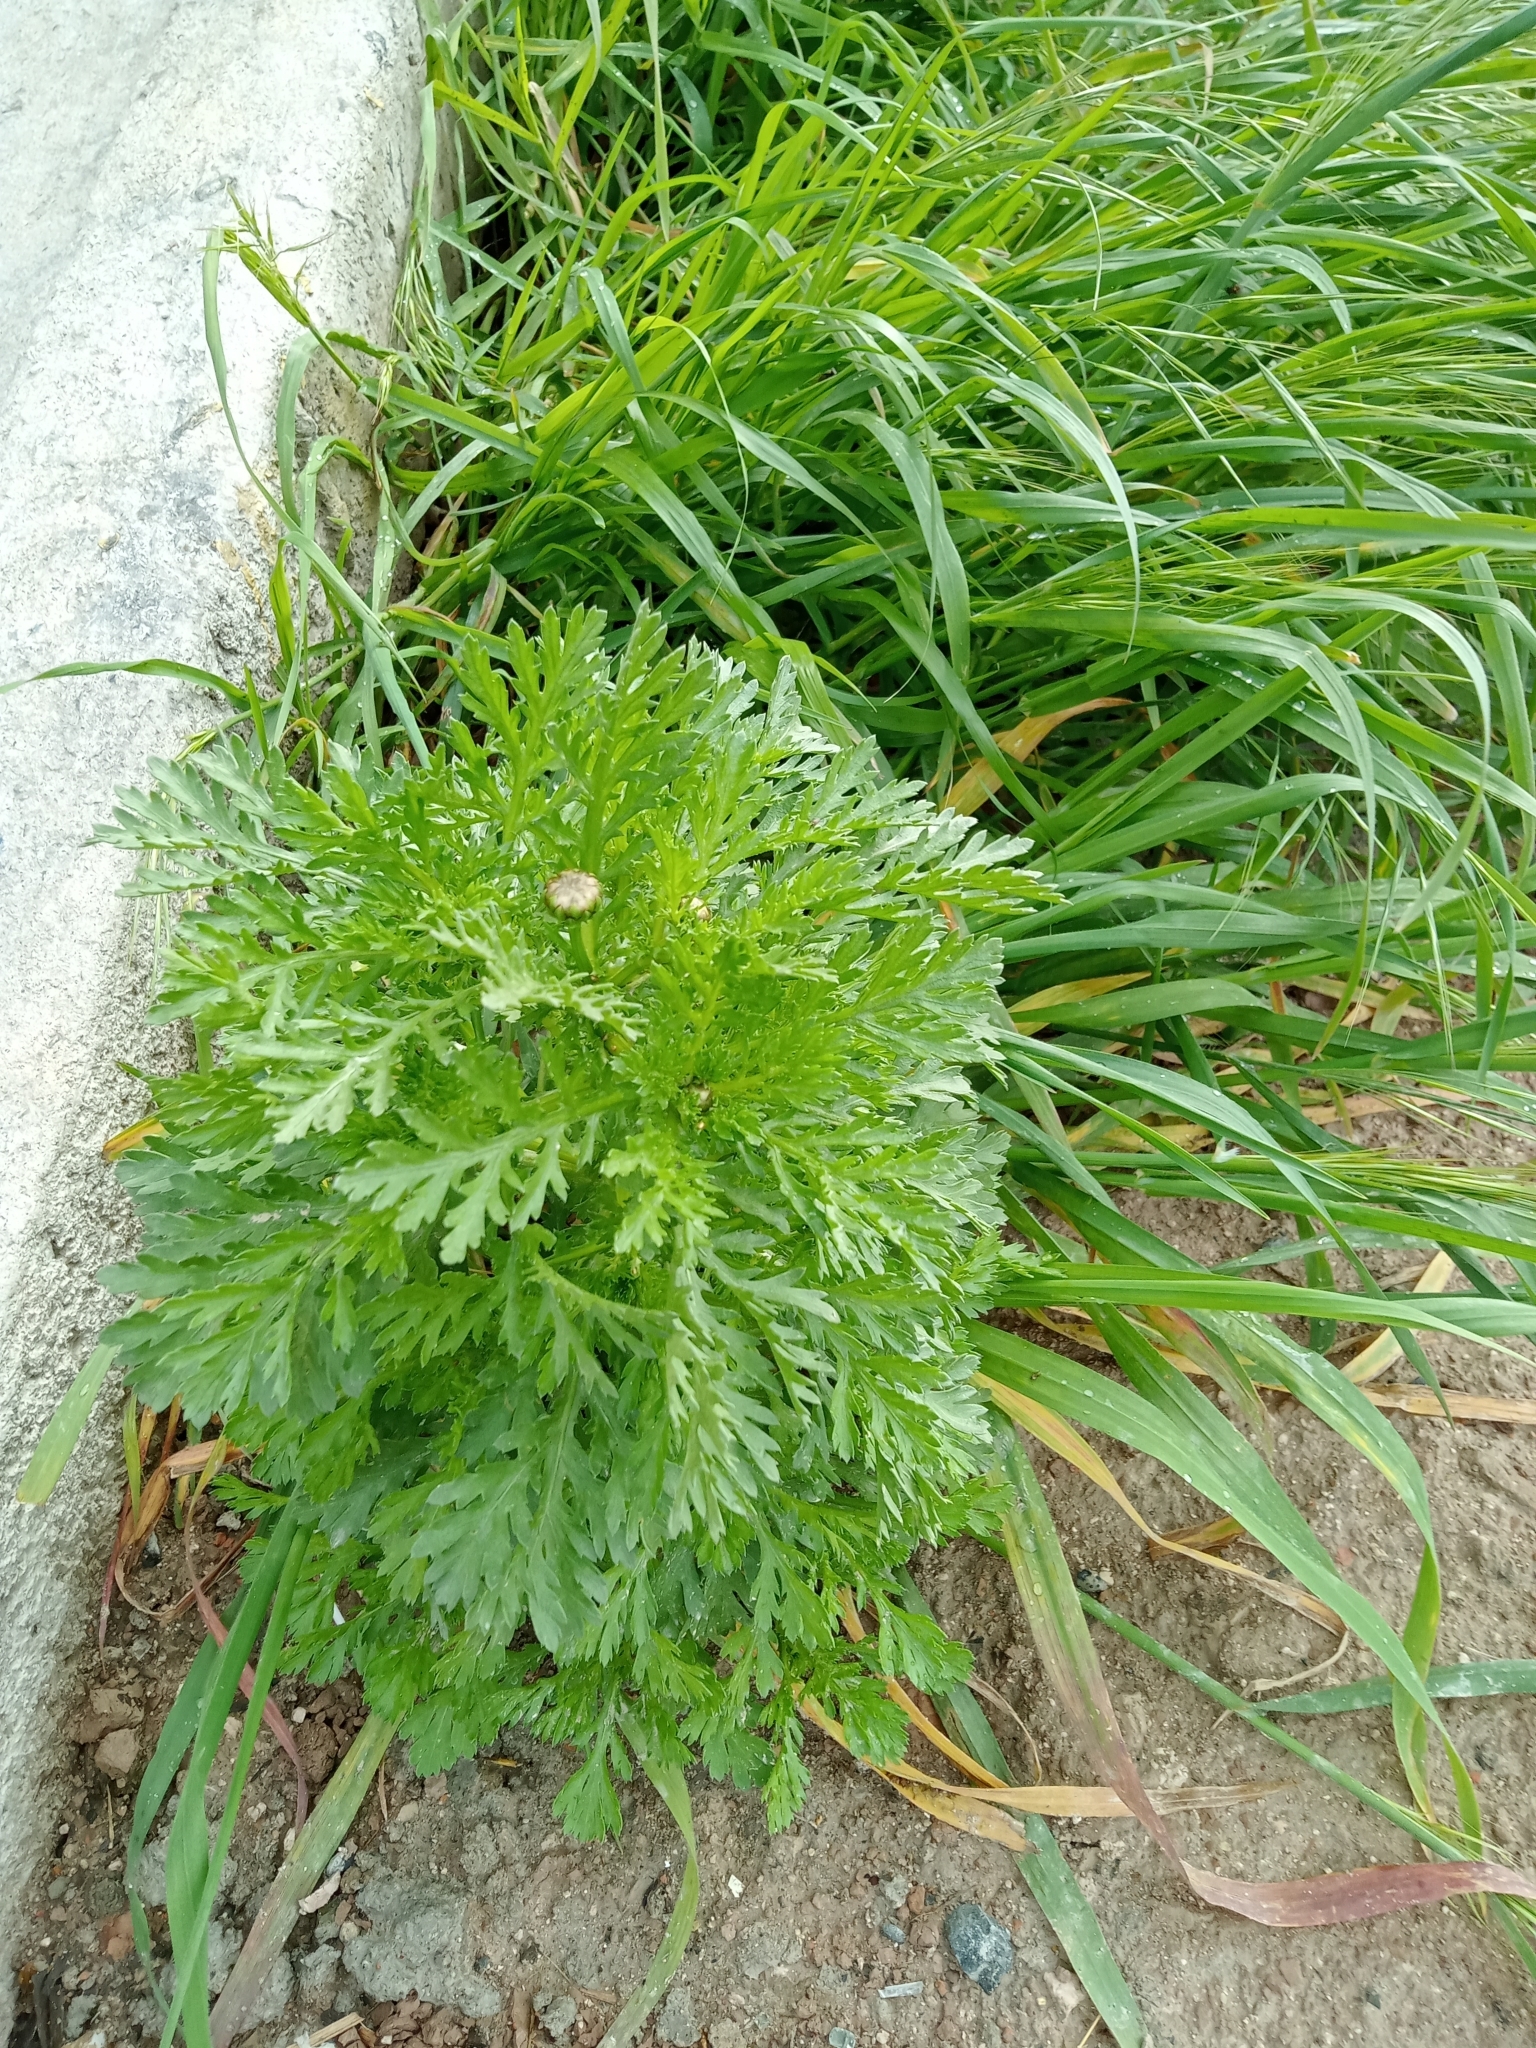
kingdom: Plantae
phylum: Tracheophyta
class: Magnoliopsida
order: Asterales
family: Asteraceae
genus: Glebionis
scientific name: Glebionis coronaria
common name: Crowndaisy
